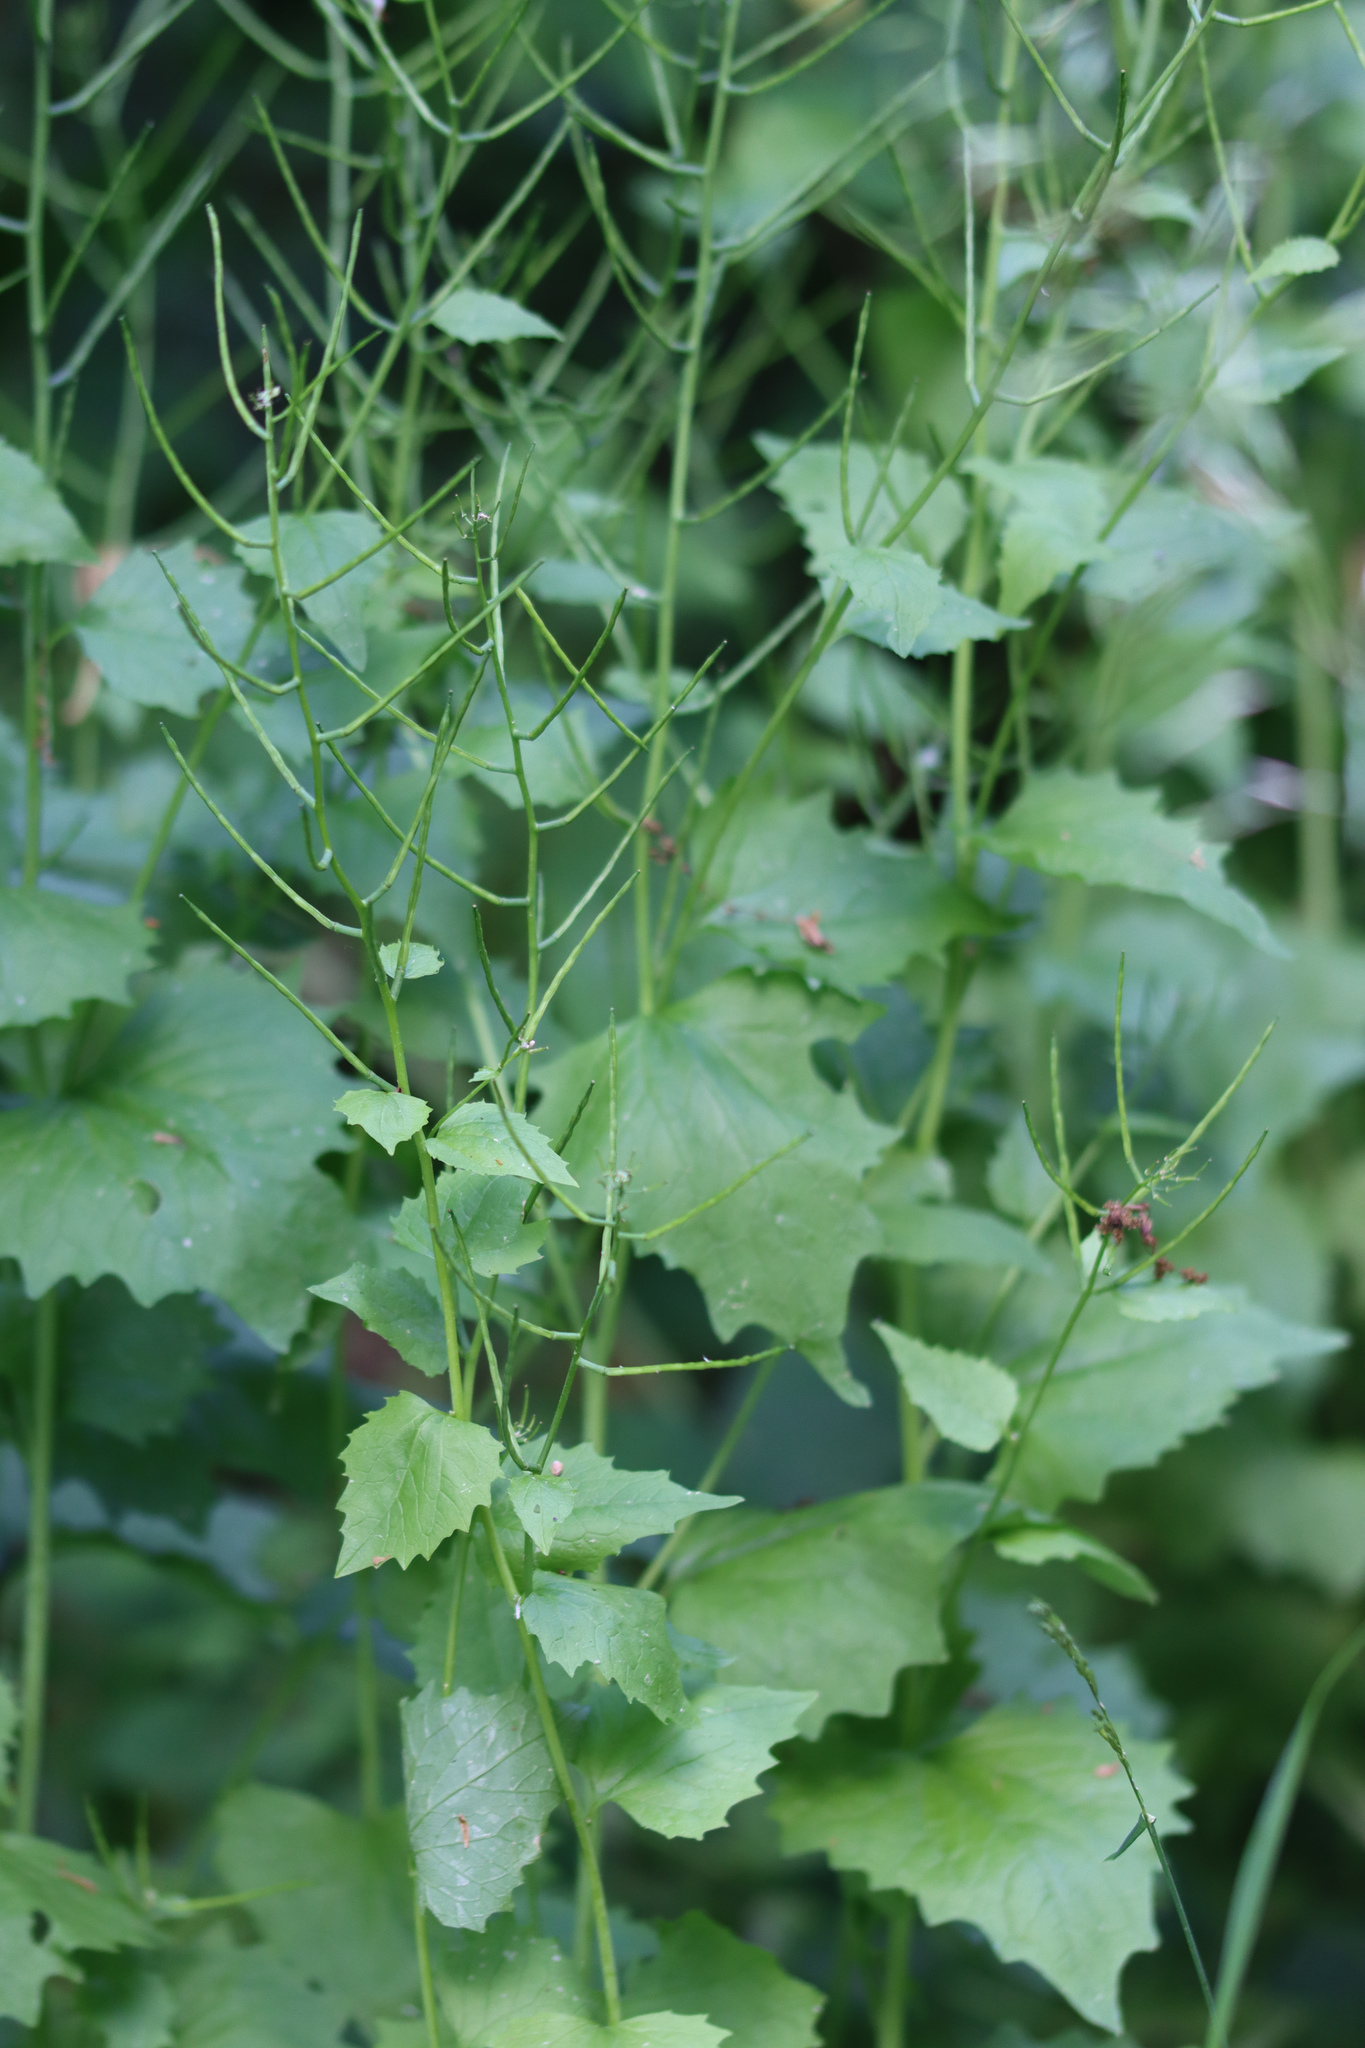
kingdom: Plantae
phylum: Tracheophyta
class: Magnoliopsida
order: Brassicales
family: Brassicaceae
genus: Alliaria
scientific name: Alliaria petiolata
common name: Garlic mustard
